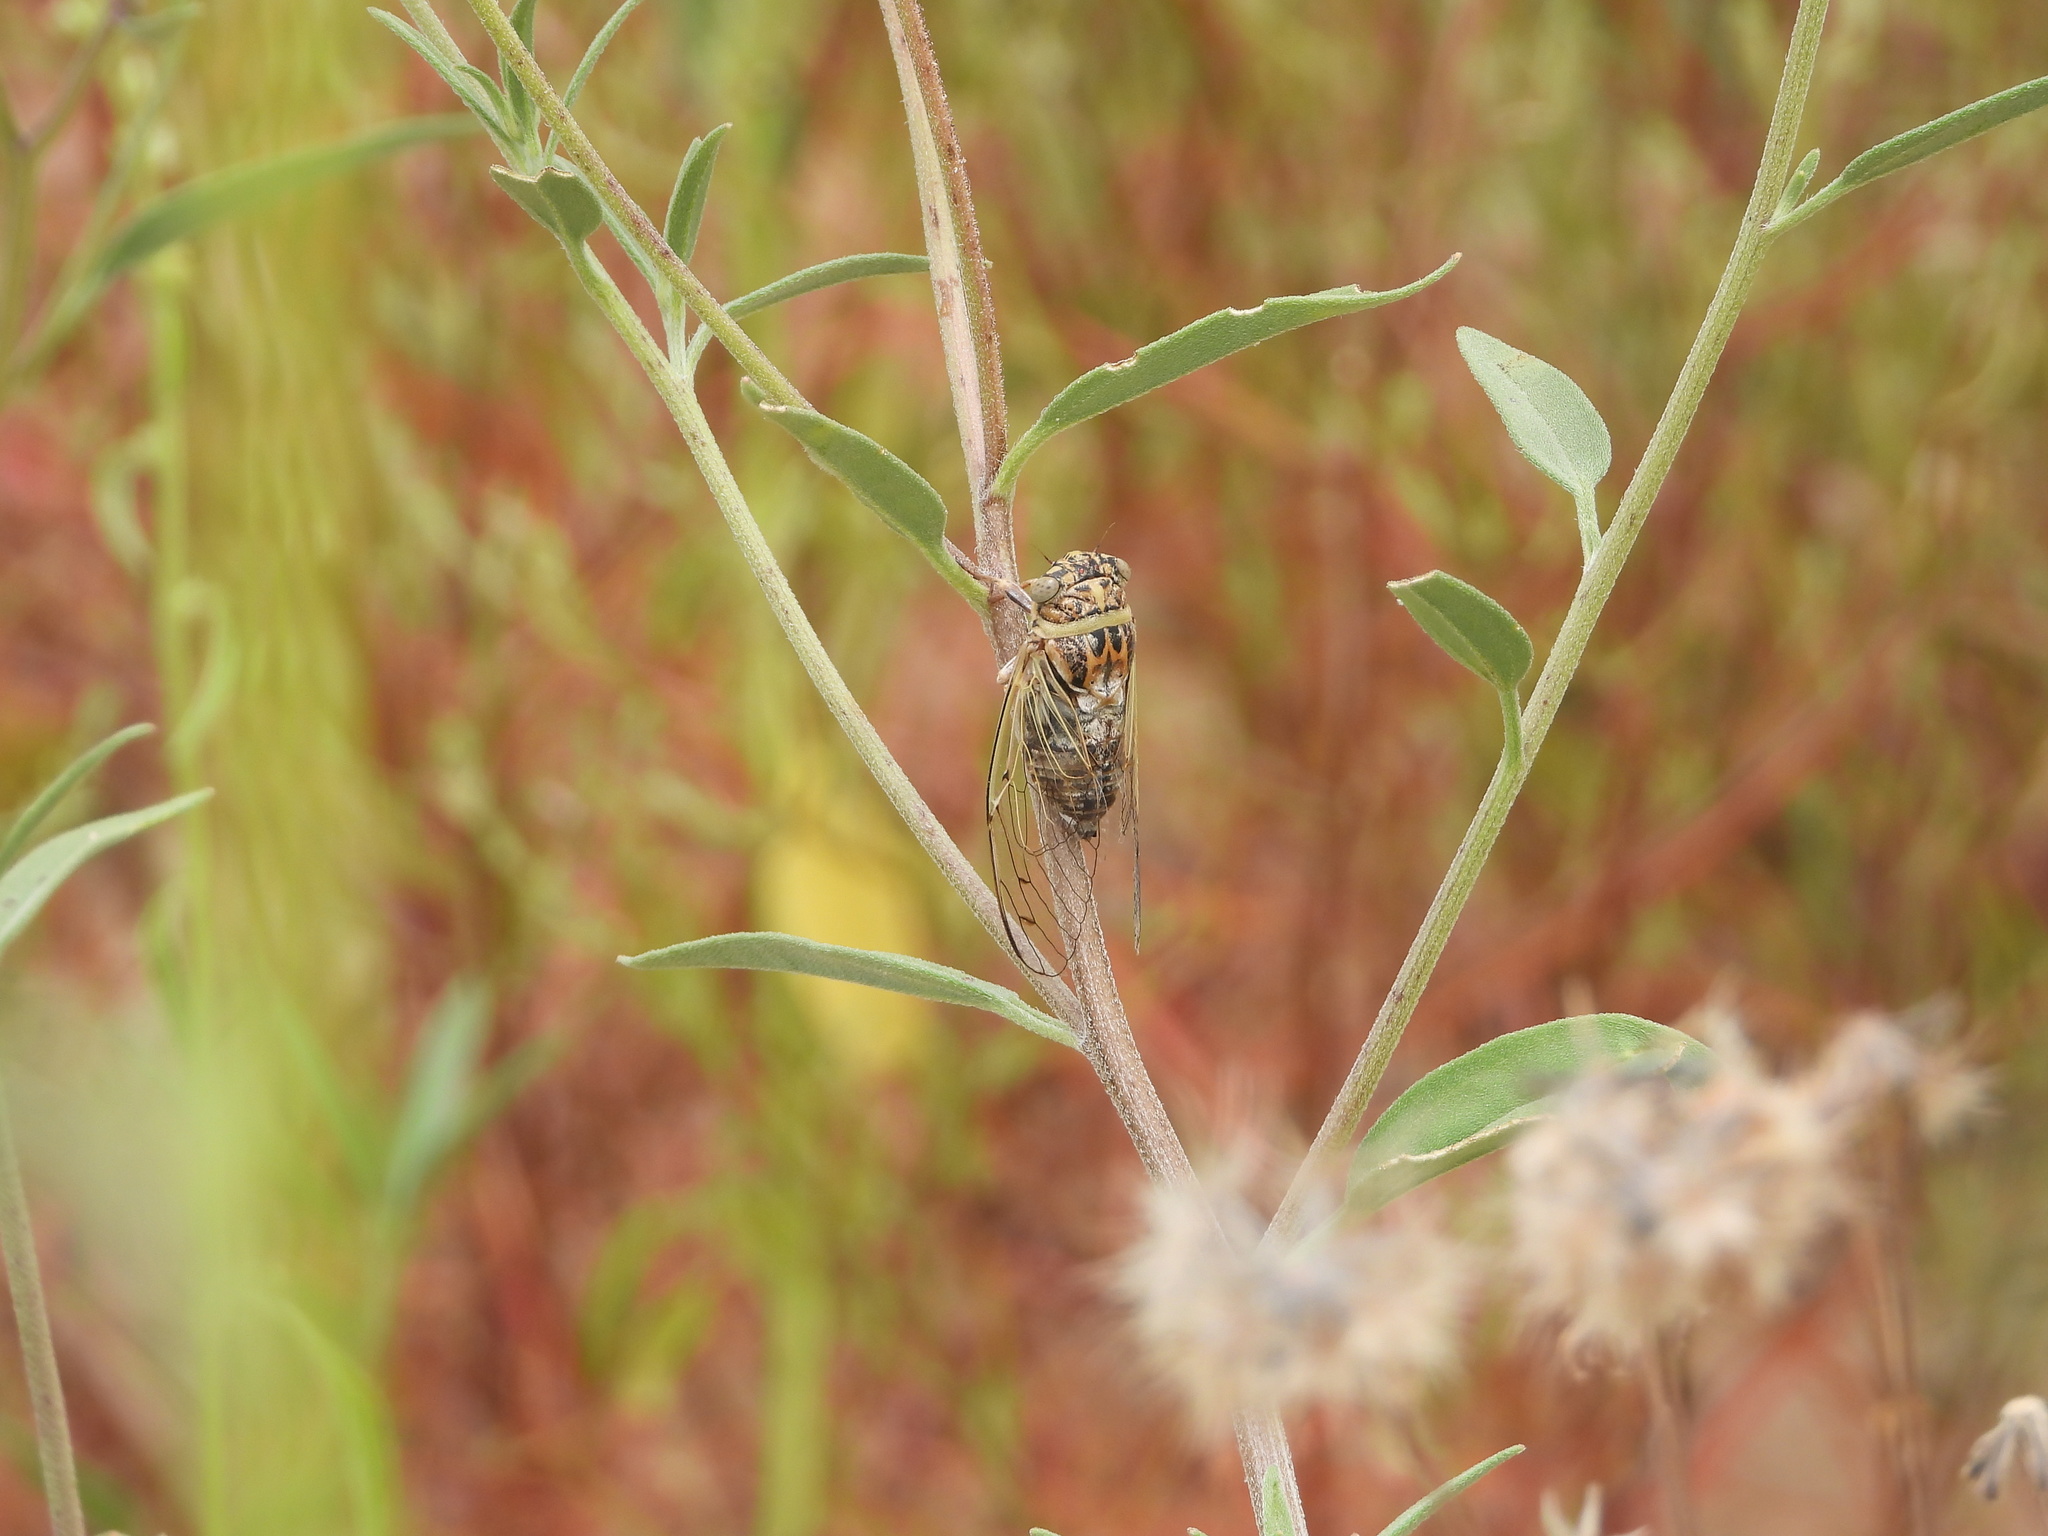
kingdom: Animalia
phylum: Arthropoda
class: Insecta
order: Hemiptera
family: Cicadidae
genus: Diceroprocta
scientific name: Diceroprocta texana
